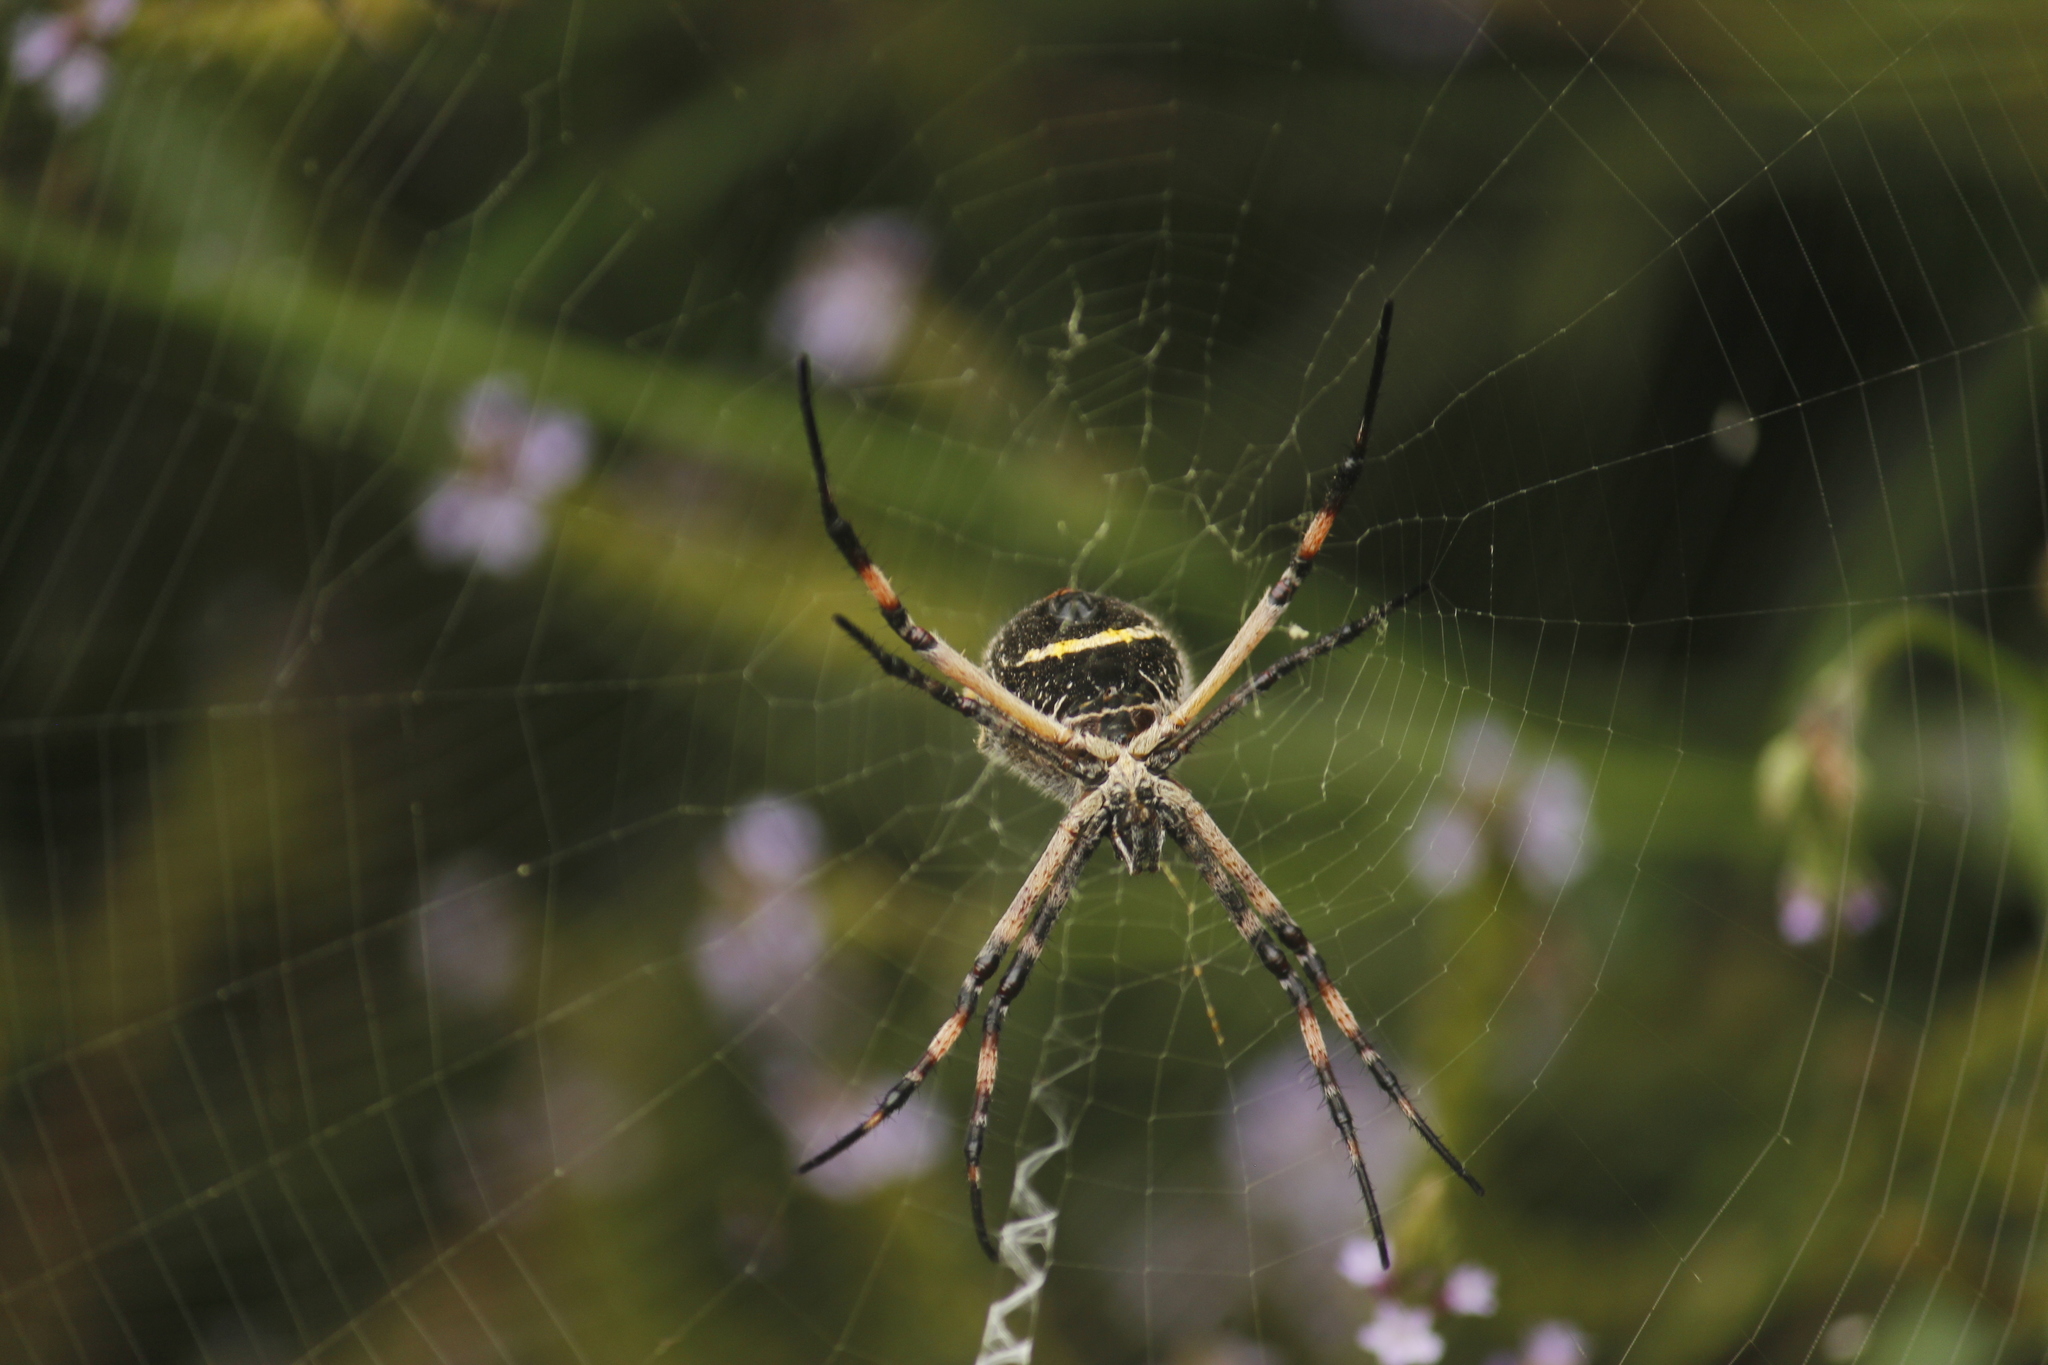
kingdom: Animalia
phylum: Arthropoda
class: Arachnida
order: Araneae
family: Araneidae
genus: Argiope
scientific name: Argiope argentata
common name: Orb weavers
